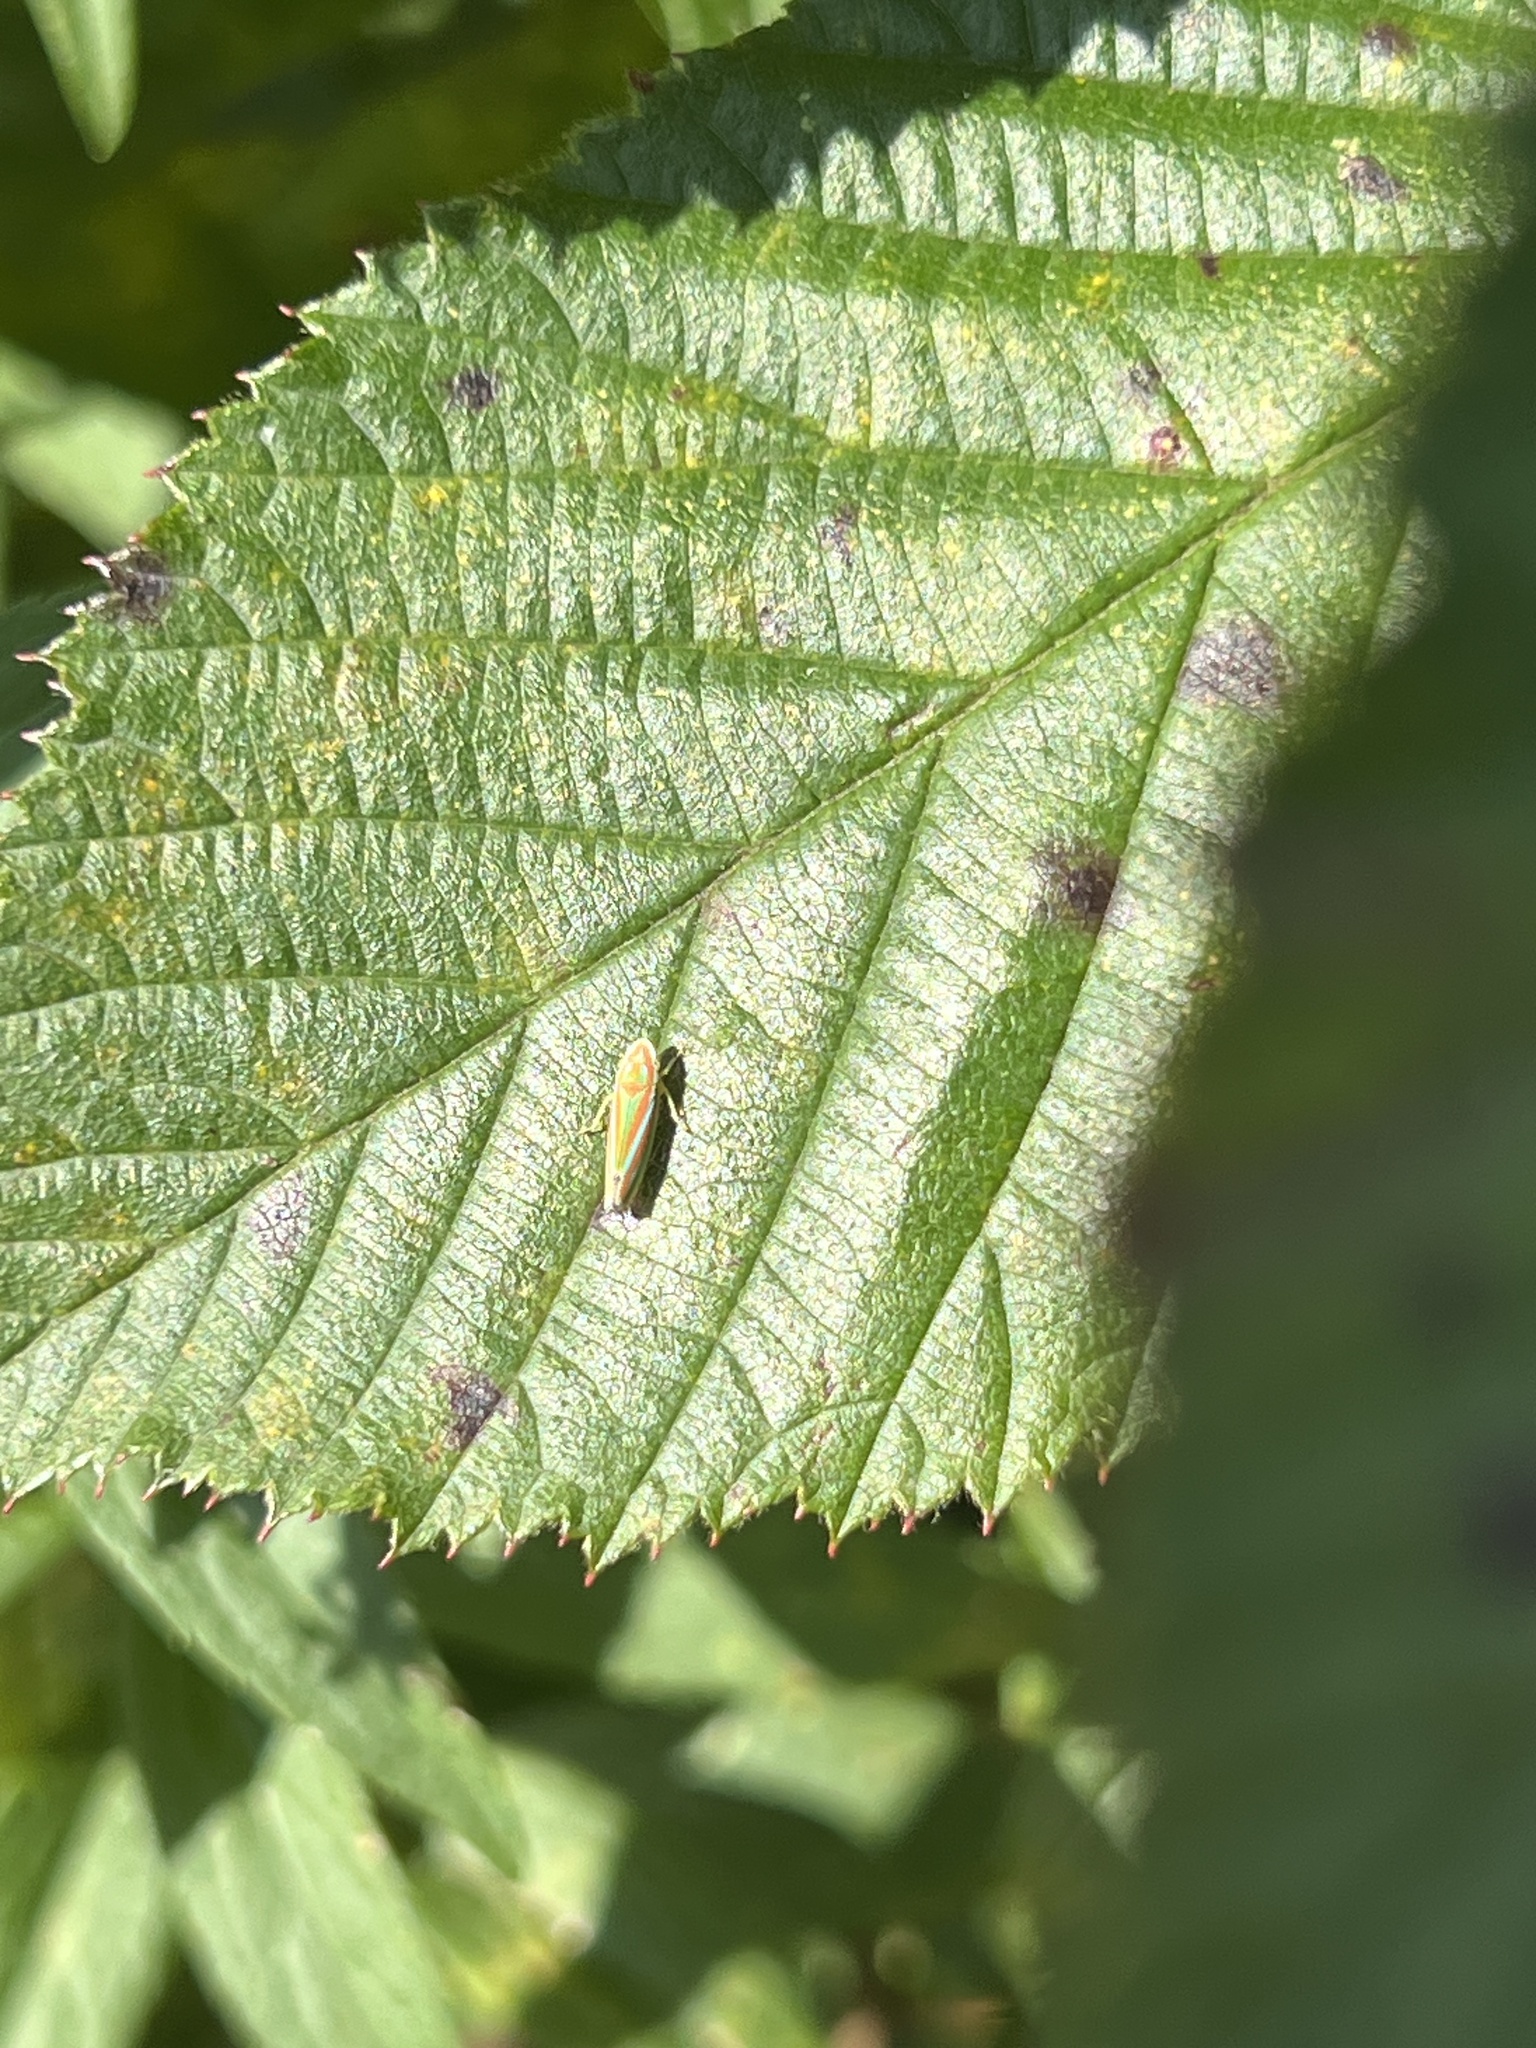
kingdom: Animalia
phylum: Arthropoda
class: Insecta
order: Hemiptera
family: Cicadellidae
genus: Graphocephala
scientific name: Graphocephala versuta
